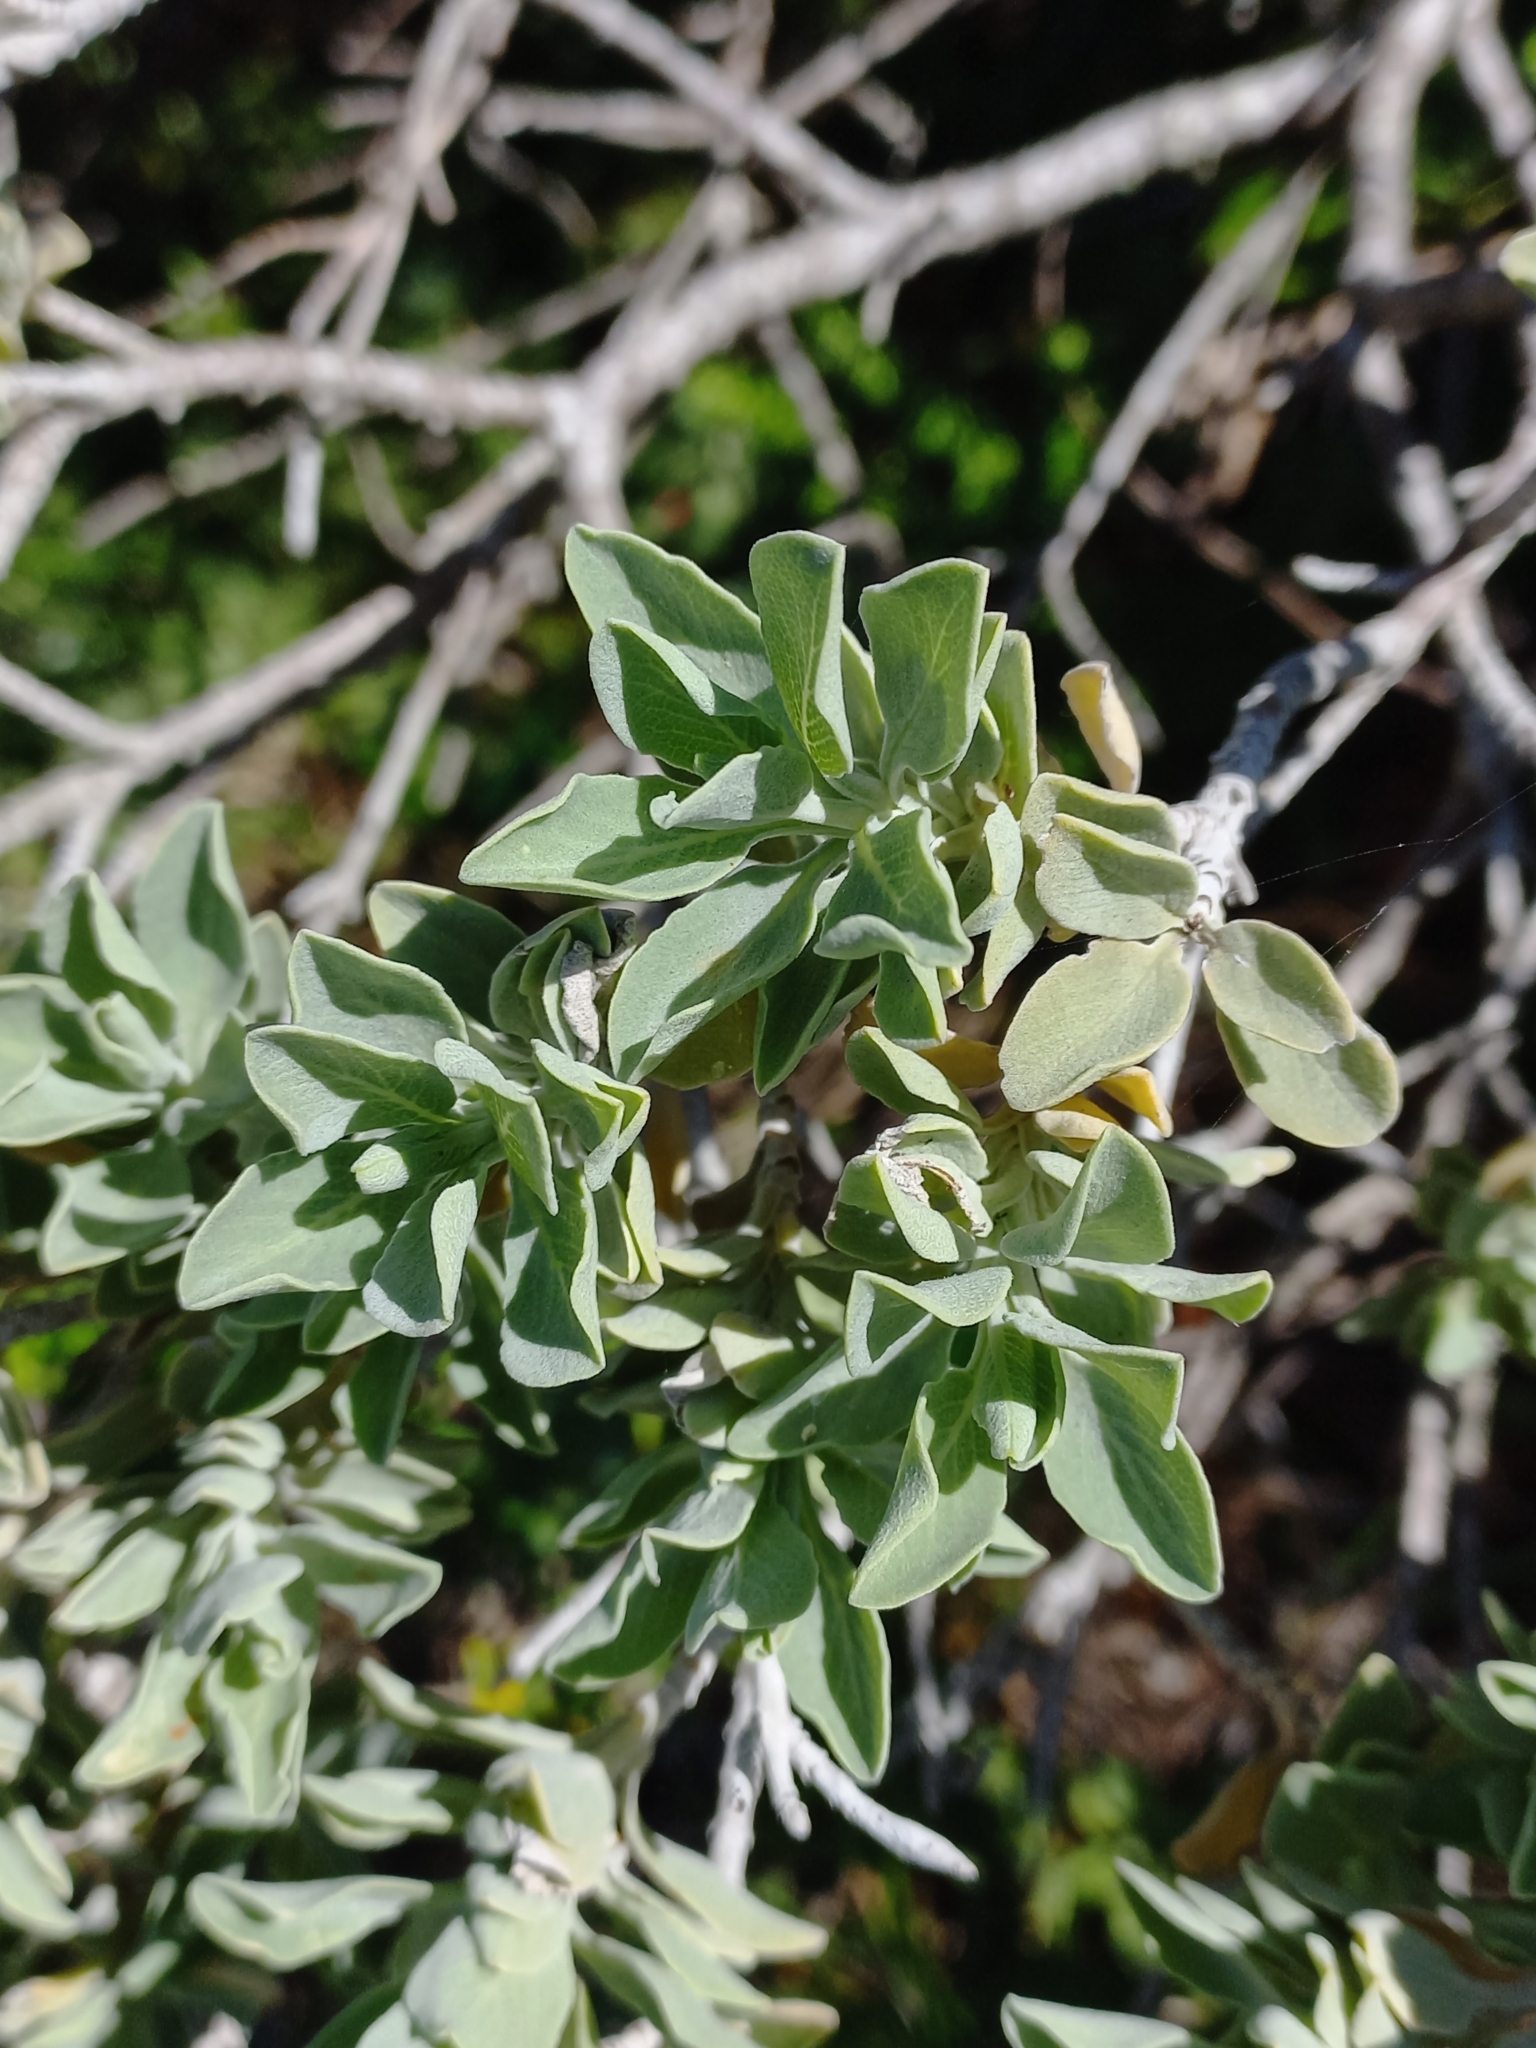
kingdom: Plantae
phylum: Tracheophyta
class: Magnoliopsida
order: Lamiales
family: Lamiaceae
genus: Salvia
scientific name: Salvia aurea
